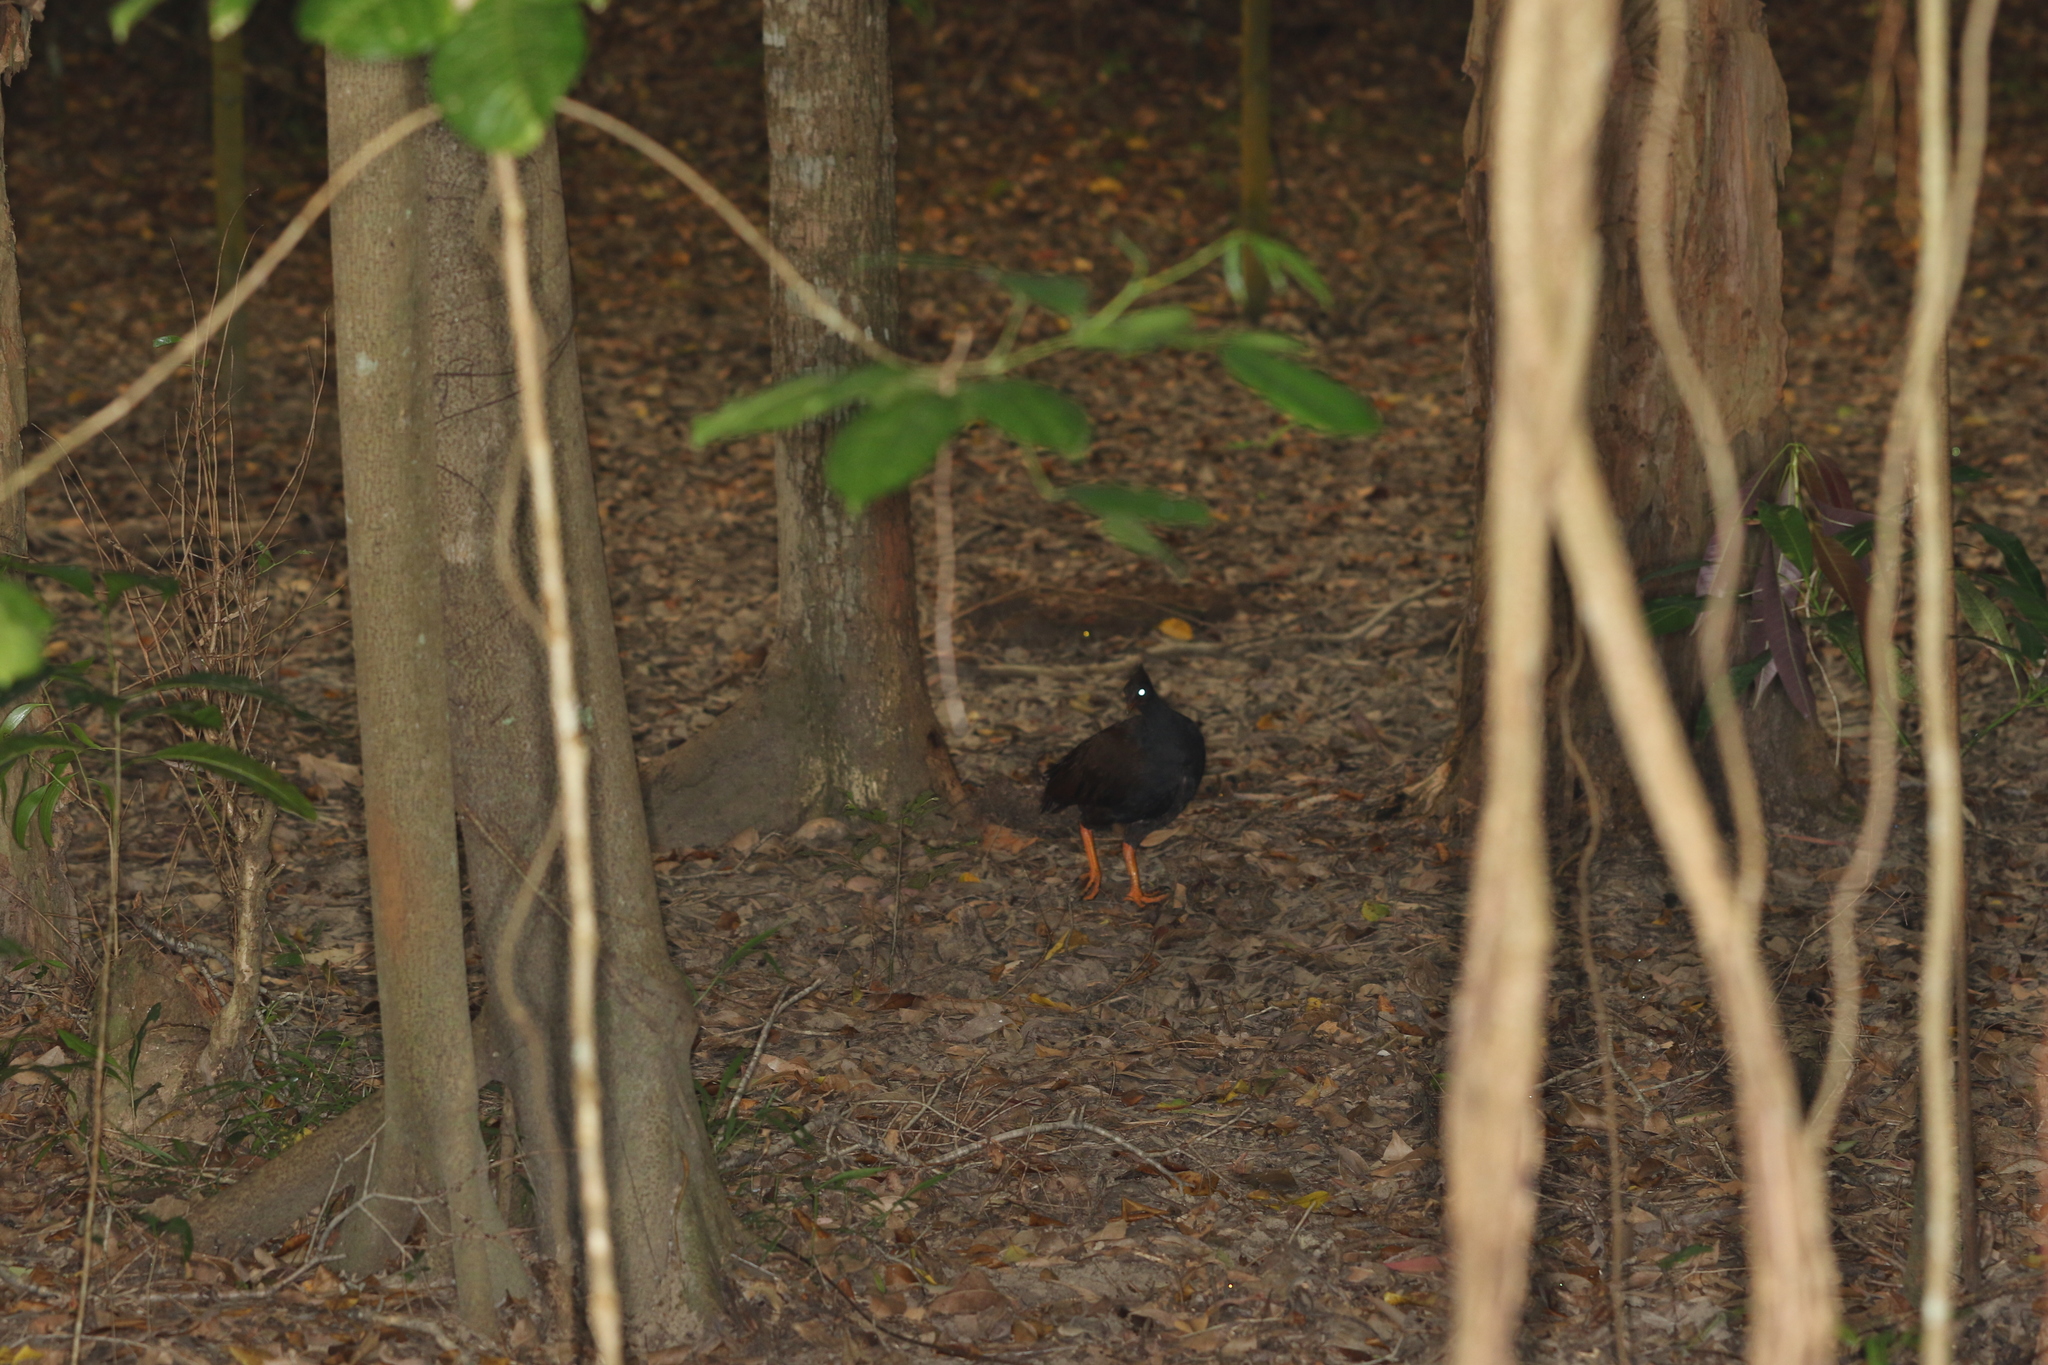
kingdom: Animalia
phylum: Chordata
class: Aves
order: Galliformes
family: Megapodiidae
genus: Megapodius
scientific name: Megapodius reinwardt
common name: Orange-footed scrubfowl
